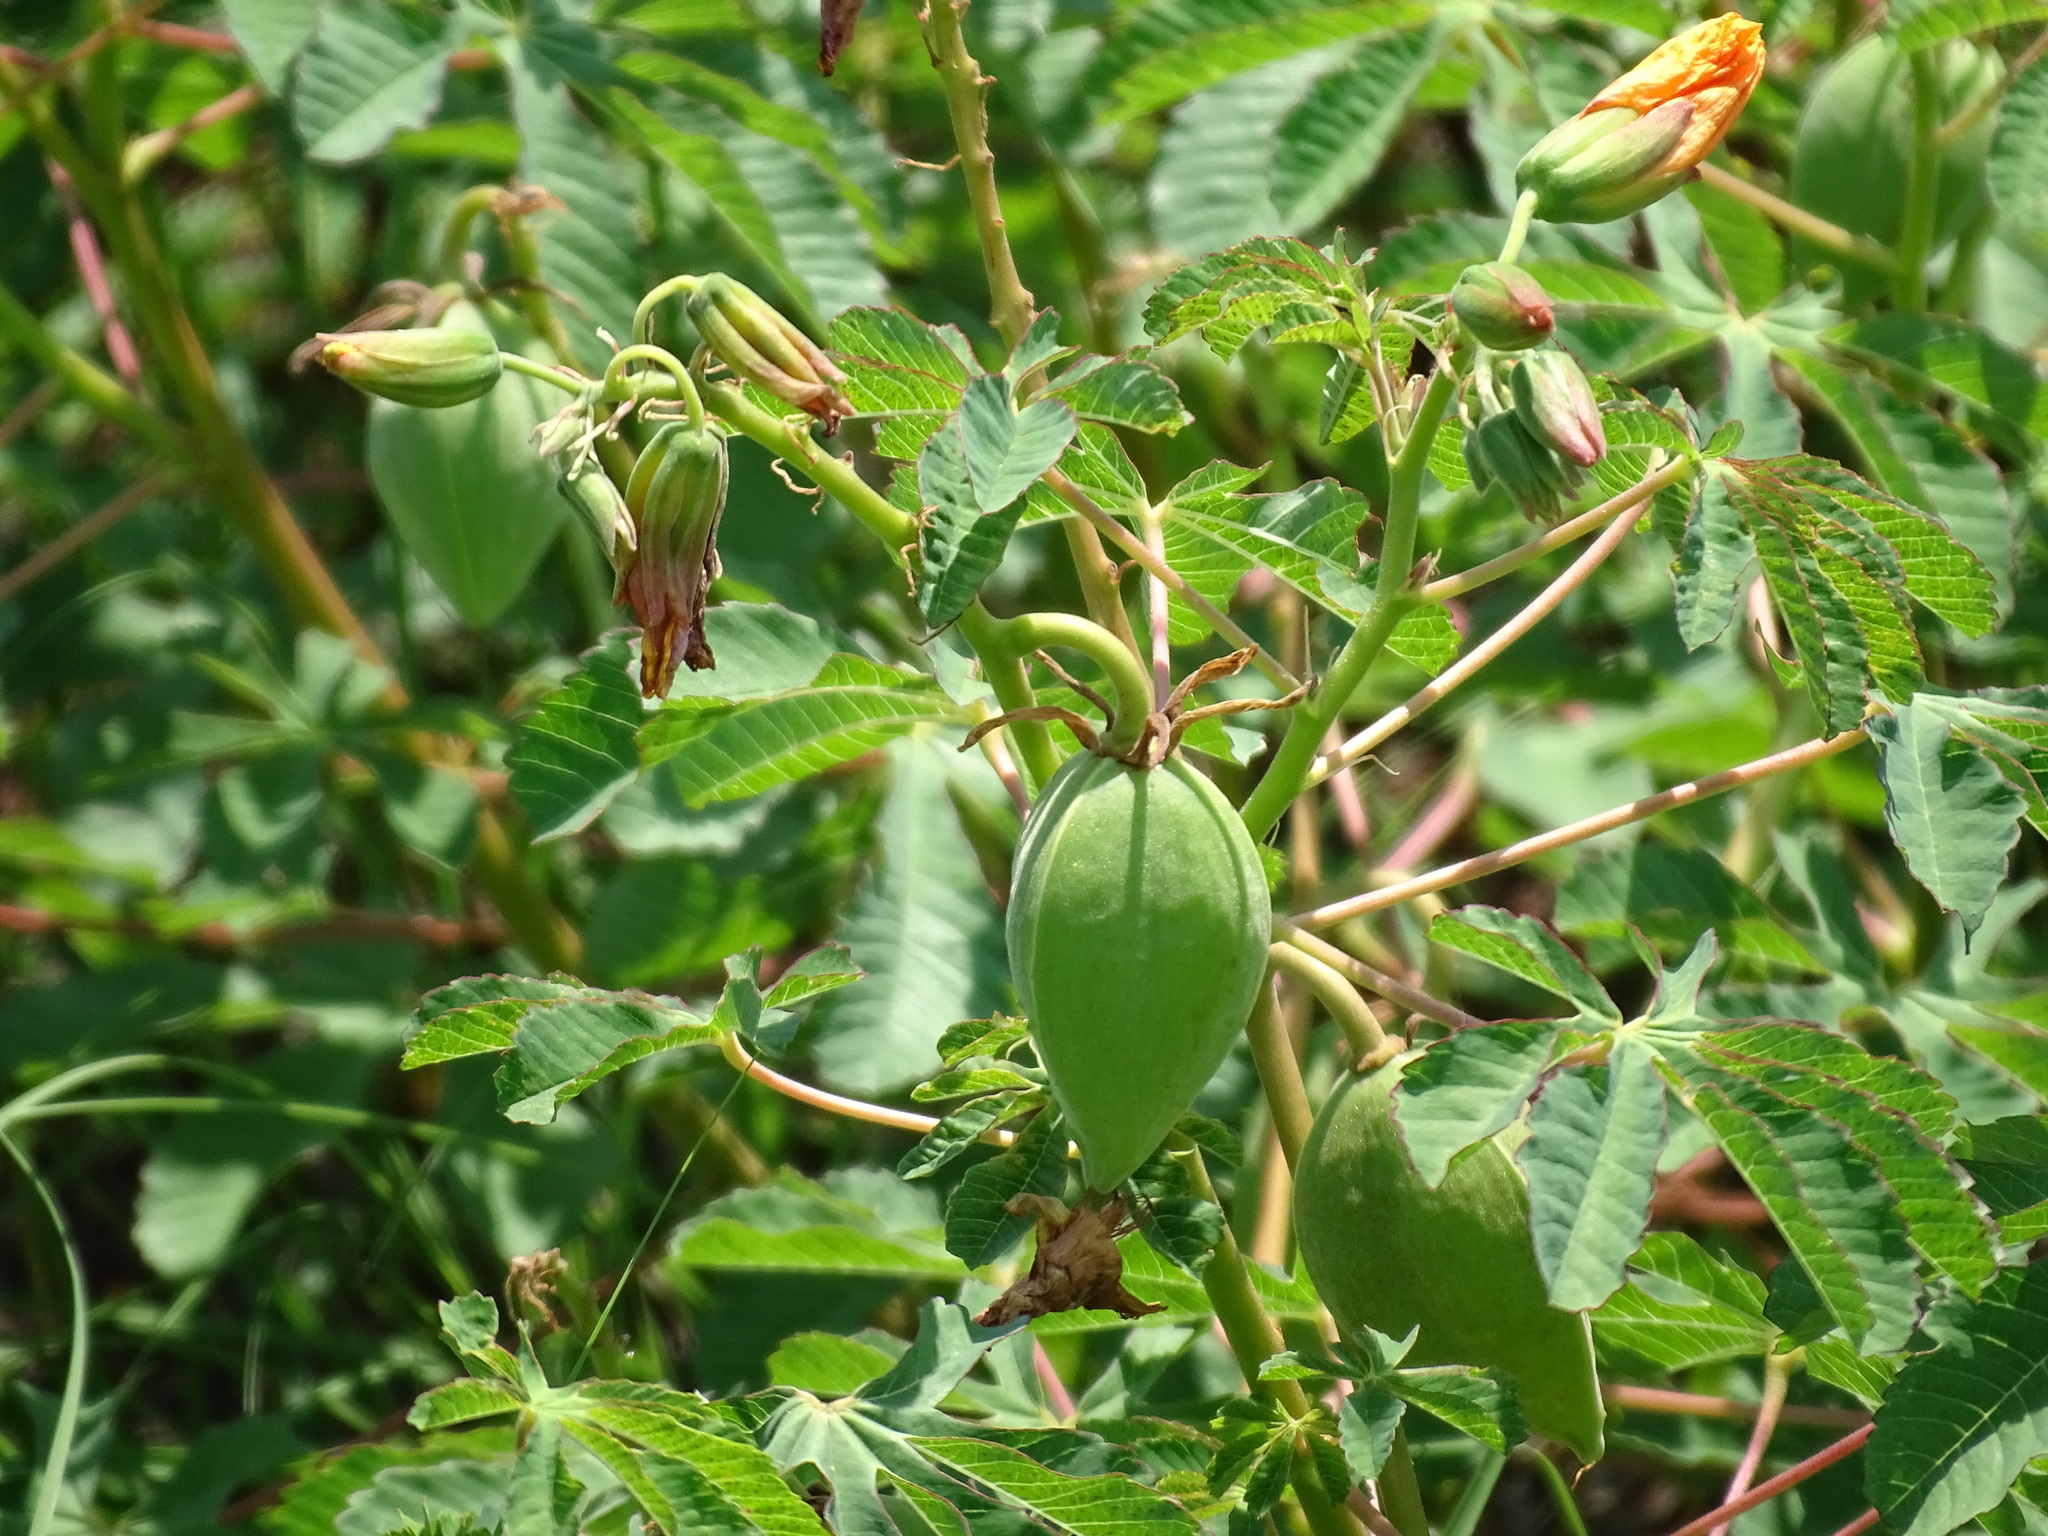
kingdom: Plantae
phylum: Tracheophyta
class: Magnoliopsida
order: Malvales
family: Cochlospermaceae
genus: Cochlospermum
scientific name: Cochlospermum wrightii
